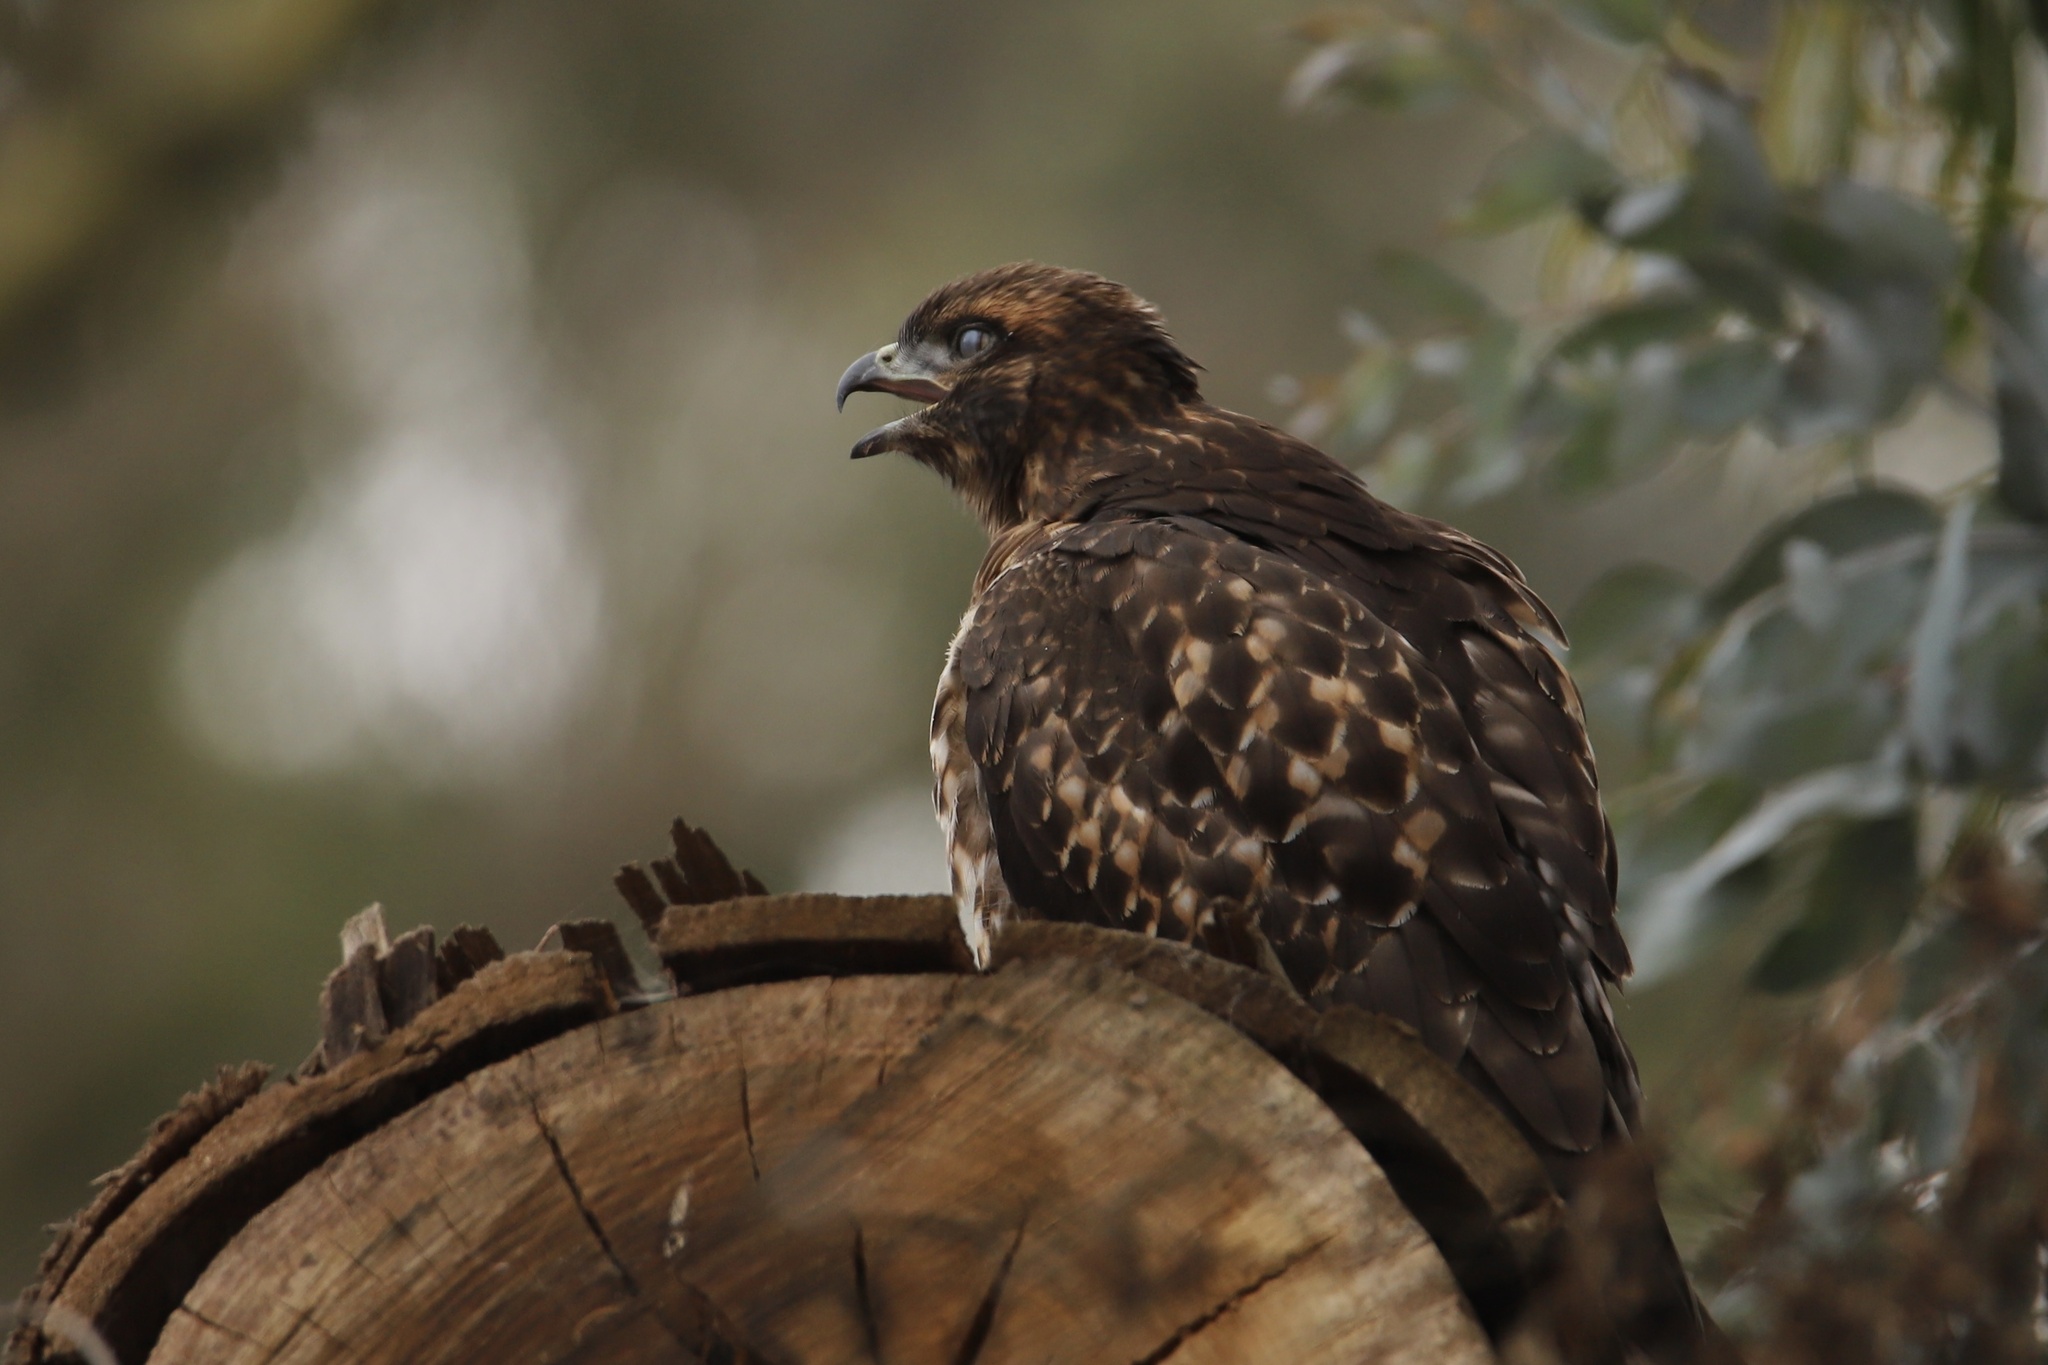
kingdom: Animalia
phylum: Chordata
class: Aves
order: Accipitriformes
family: Accipitridae
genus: Buteo
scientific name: Buteo jamaicensis
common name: Red-tailed hawk
